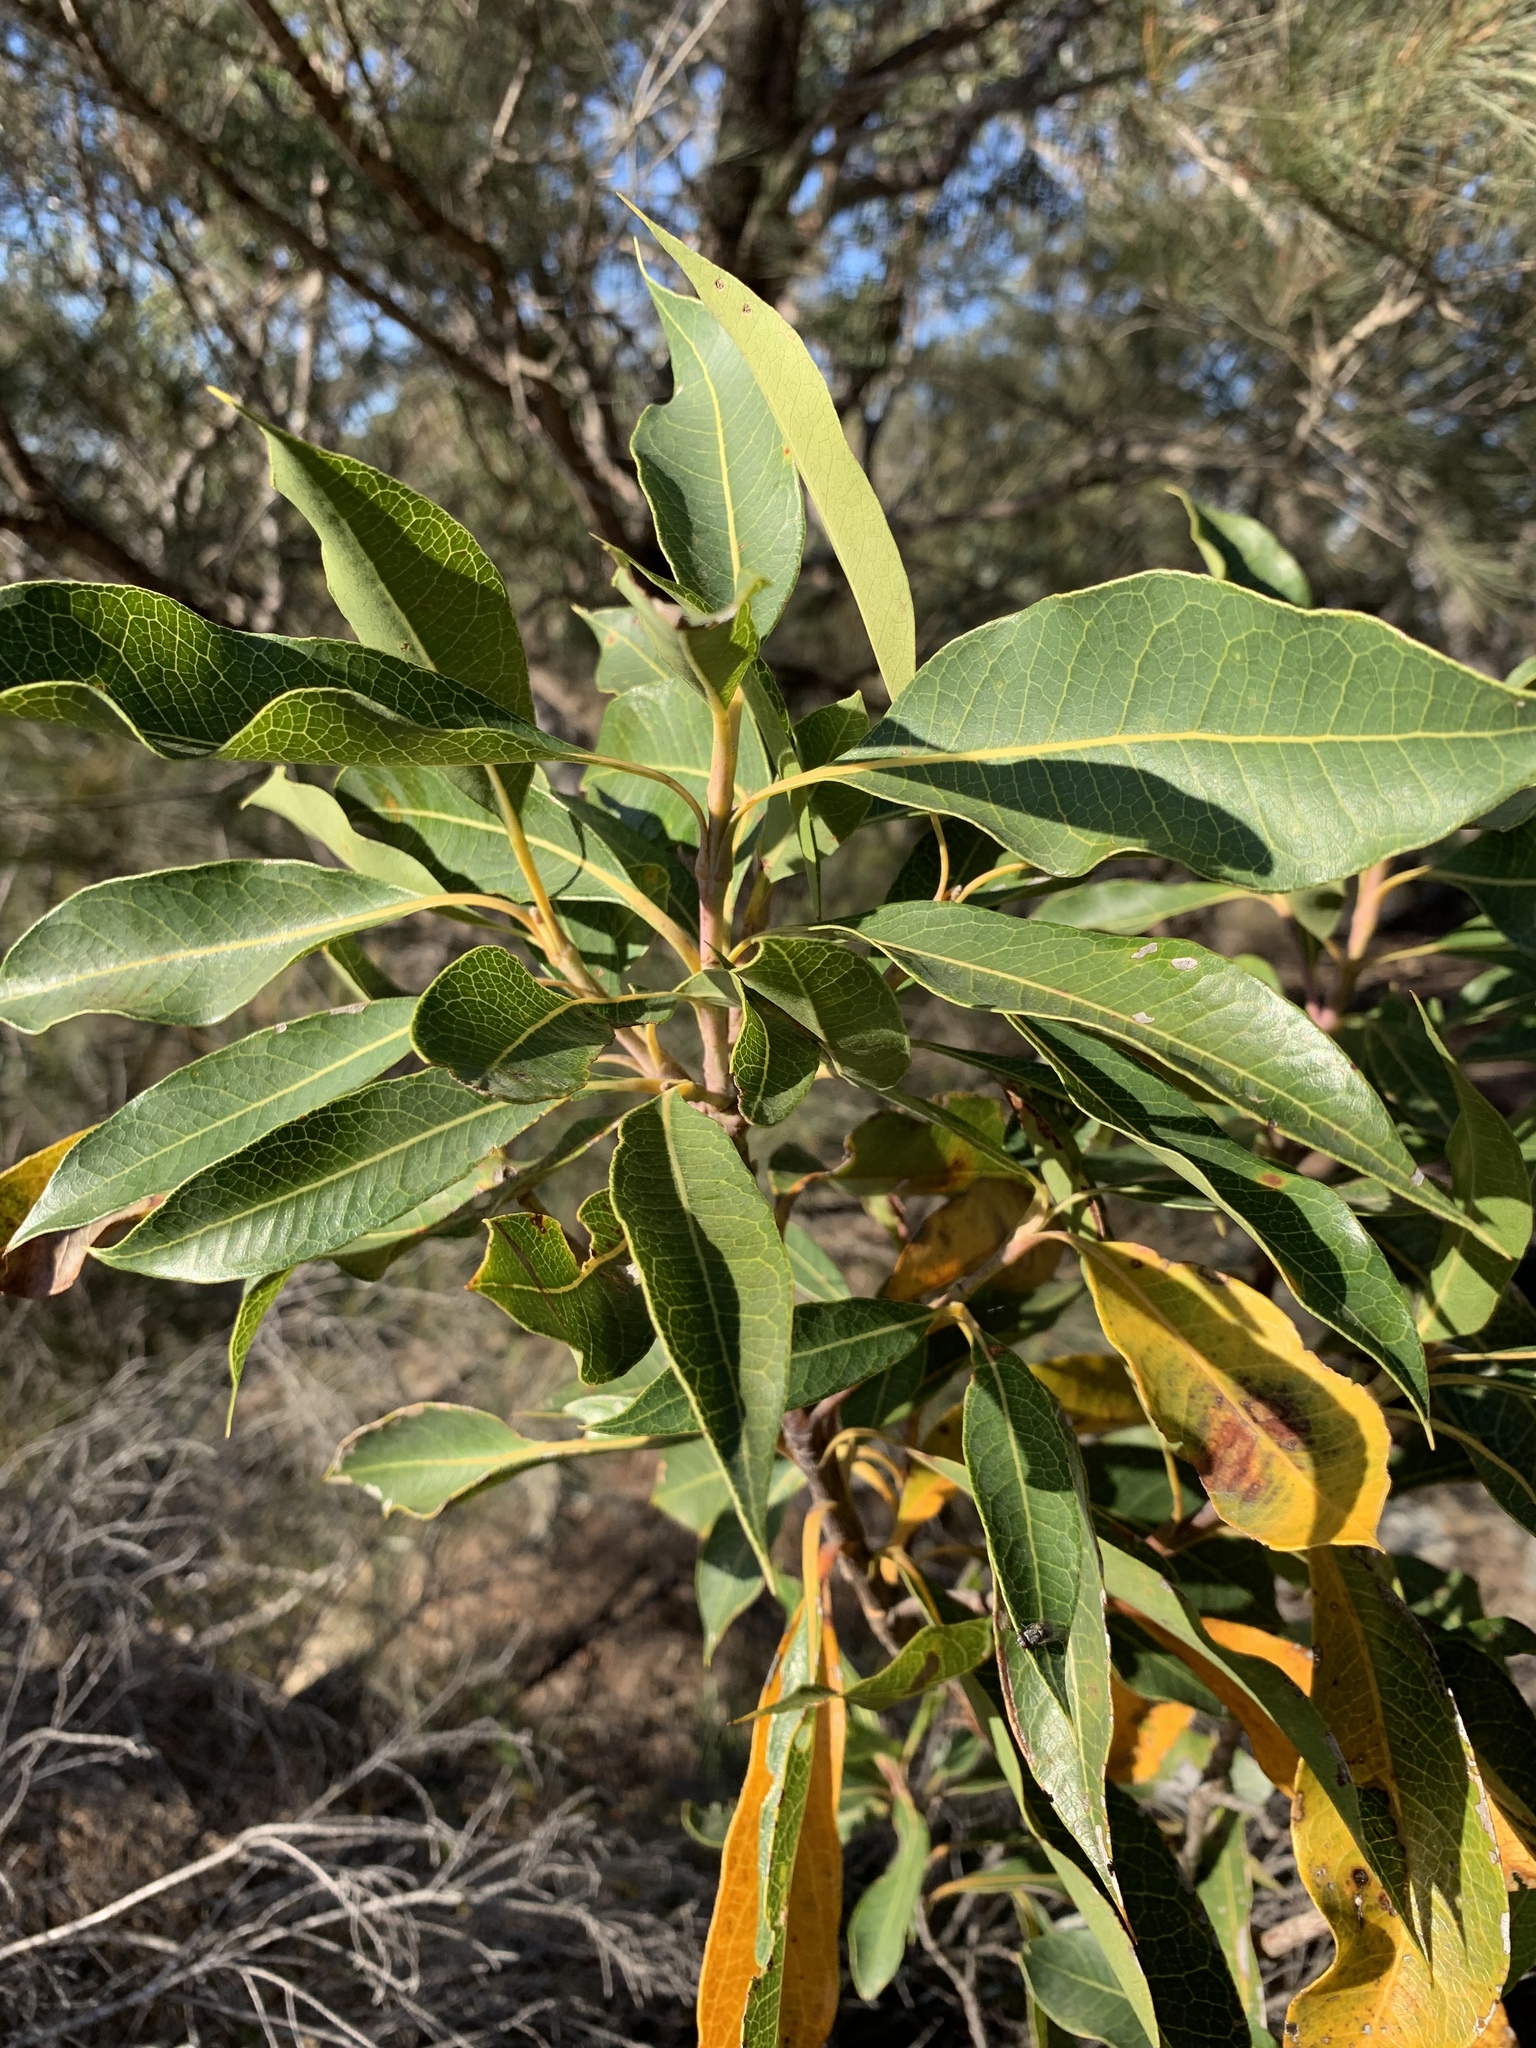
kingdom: Plantae
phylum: Tracheophyta
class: Magnoliopsida
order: Proteales
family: Proteaceae
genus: Xylomelum
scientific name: Xylomelum pyriforme
